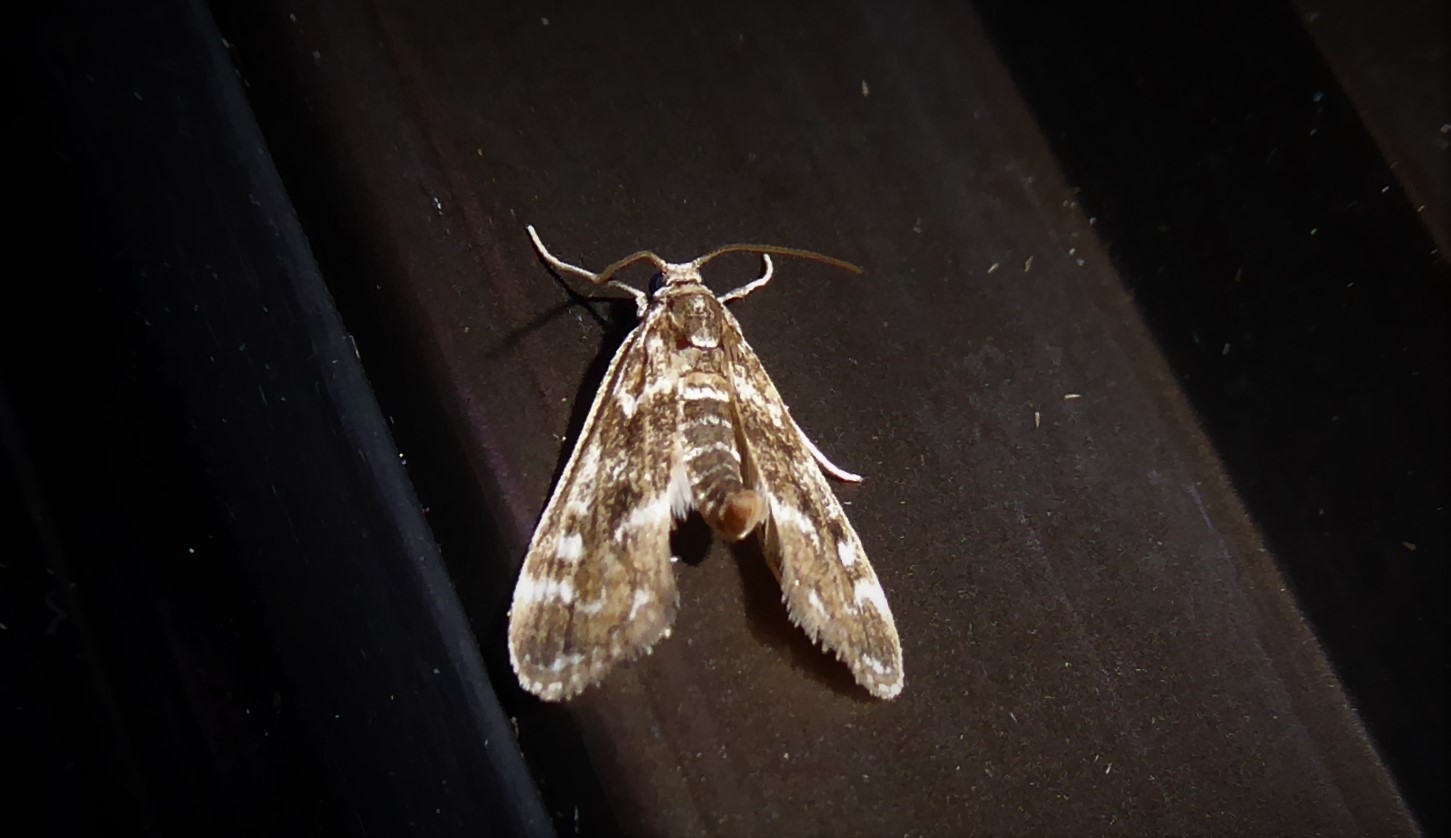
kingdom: Animalia
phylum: Arthropoda
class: Insecta
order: Lepidoptera
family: Crambidae
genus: Hygraula
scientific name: Hygraula nitens
